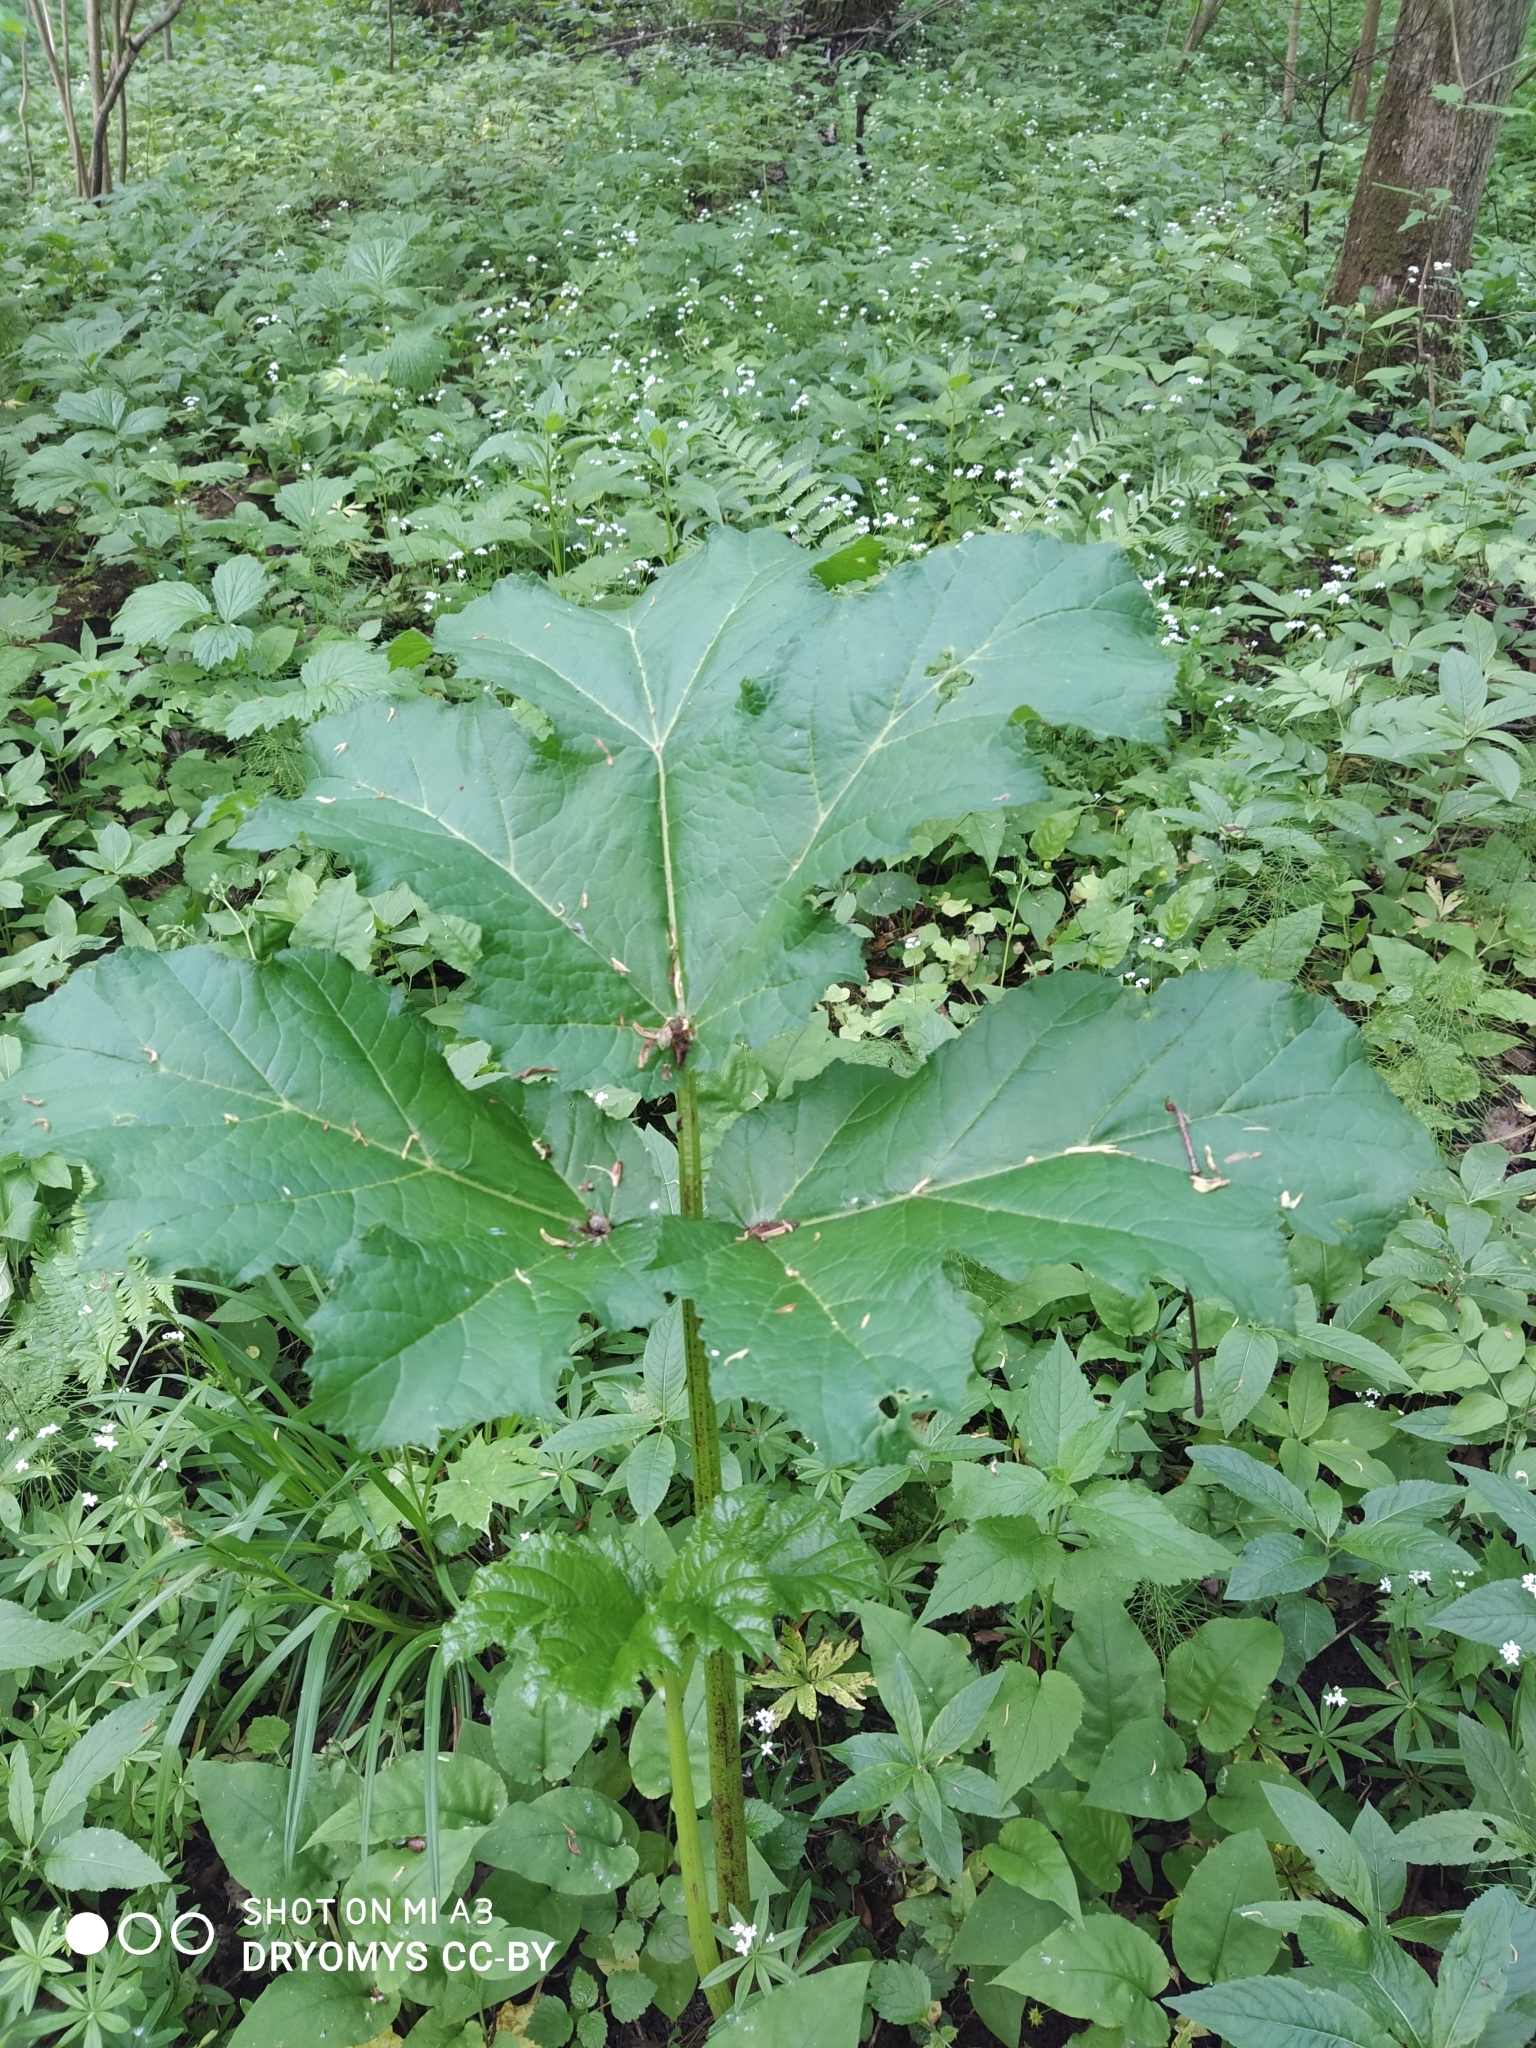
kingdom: Plantae
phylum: Tracheophyta
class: Magnoliopsida
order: Apiales
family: Apiaceae
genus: Heracleum
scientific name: Heracleum sosnowskyi
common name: Sosnowsky's hogweed
